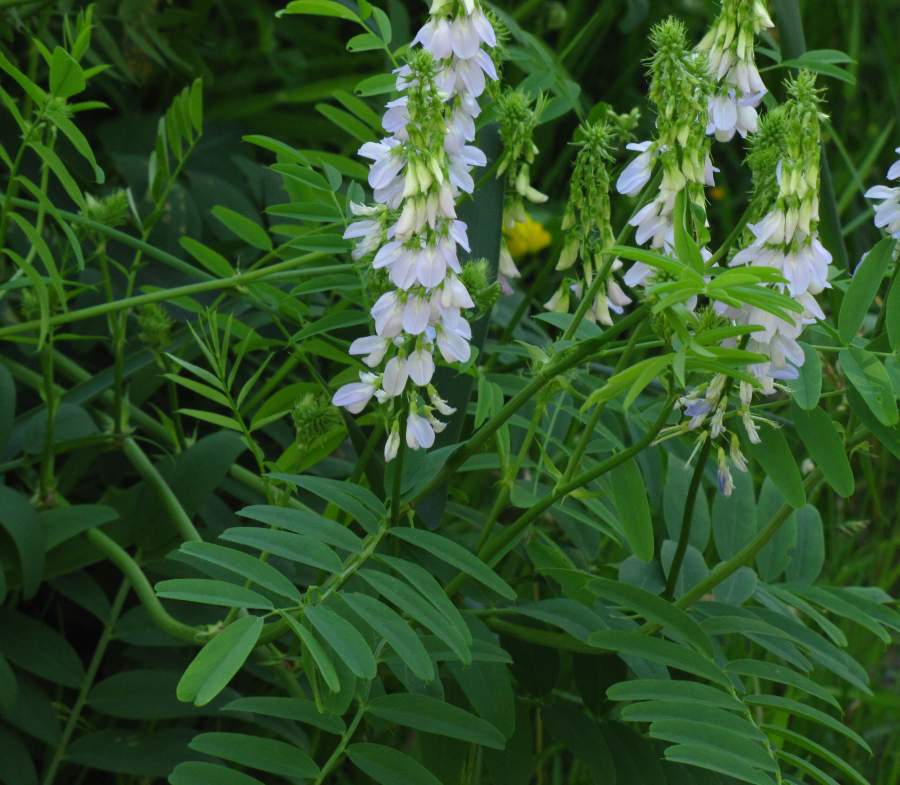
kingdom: Plantae
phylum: Tracheophyta
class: Magnoliopsida
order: Fabales
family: Fabaceae
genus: Galega
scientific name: Galega officinalis
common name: Goat's-rue
